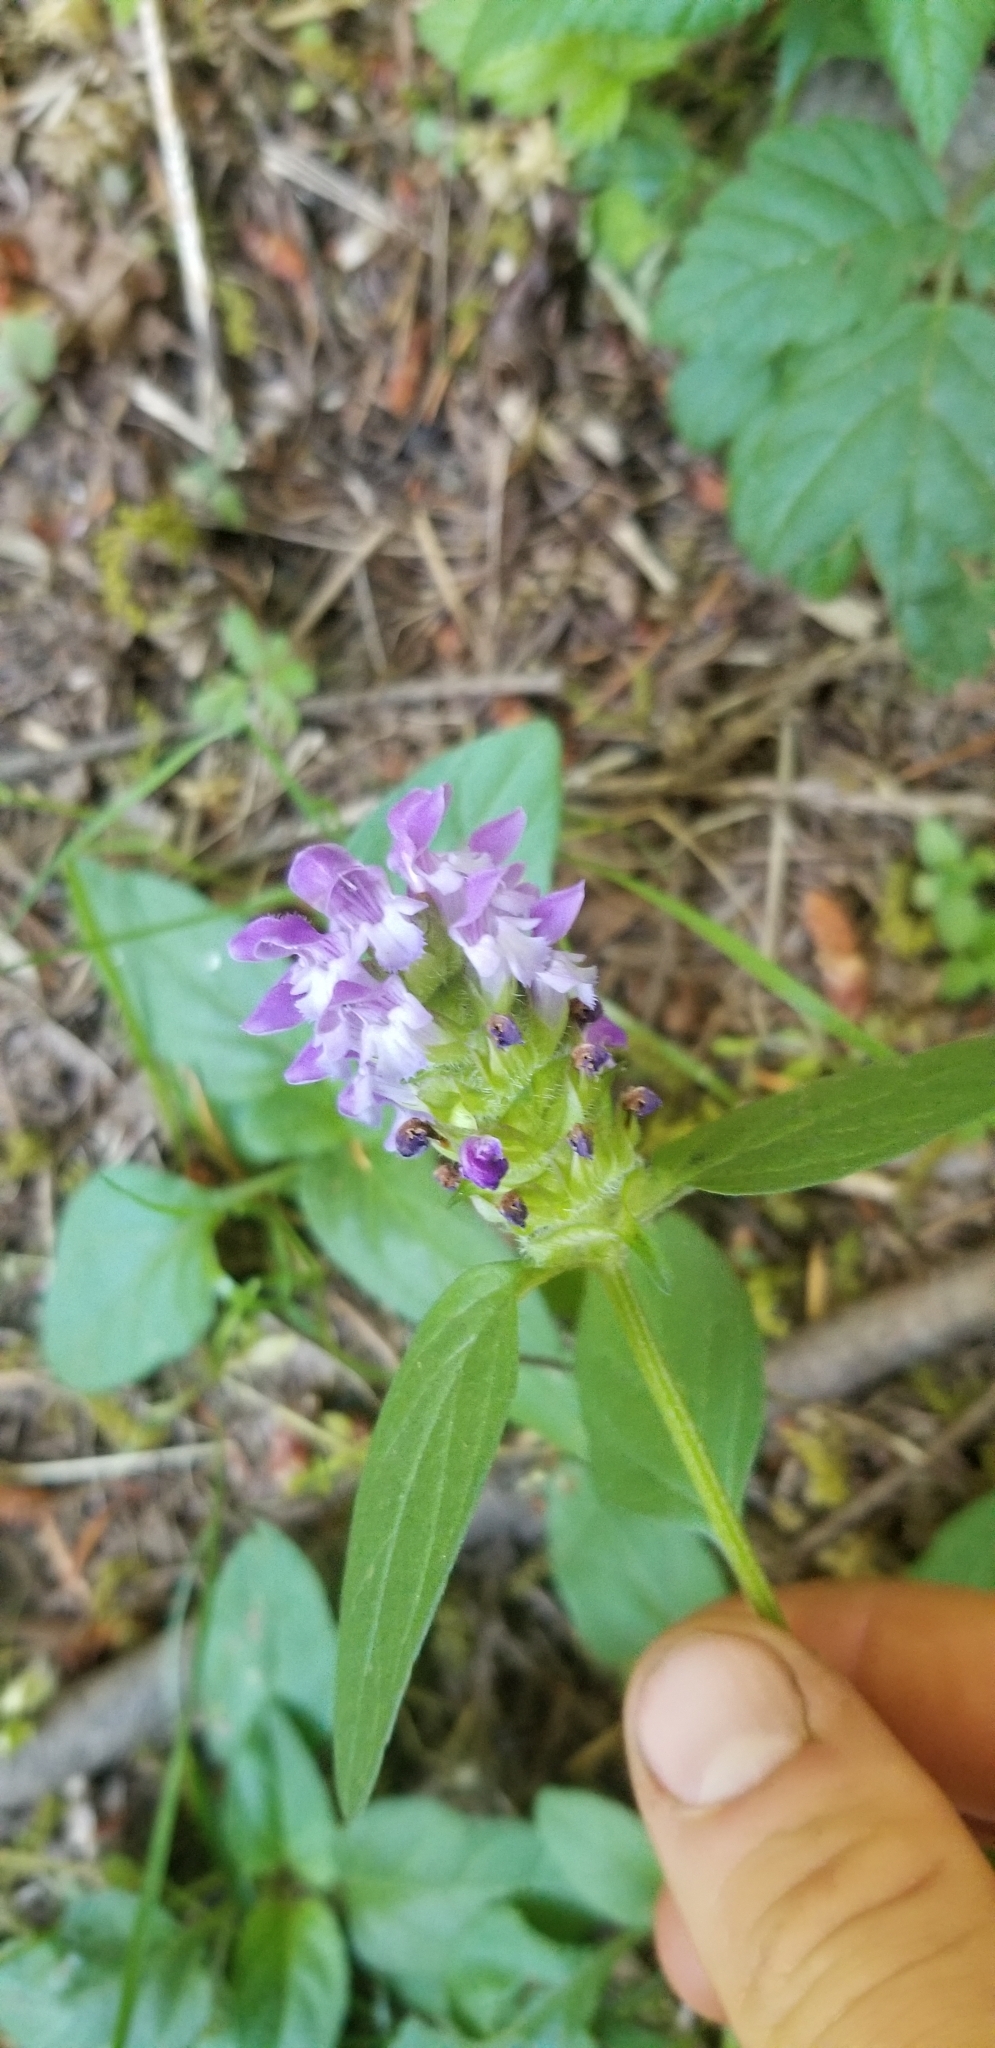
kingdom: Plantae
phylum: Tracheophyta
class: Magnoliopsida
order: Lamiales
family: Lamiaceae
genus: Prunella
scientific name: Prunella vulgaris
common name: Heal-all
